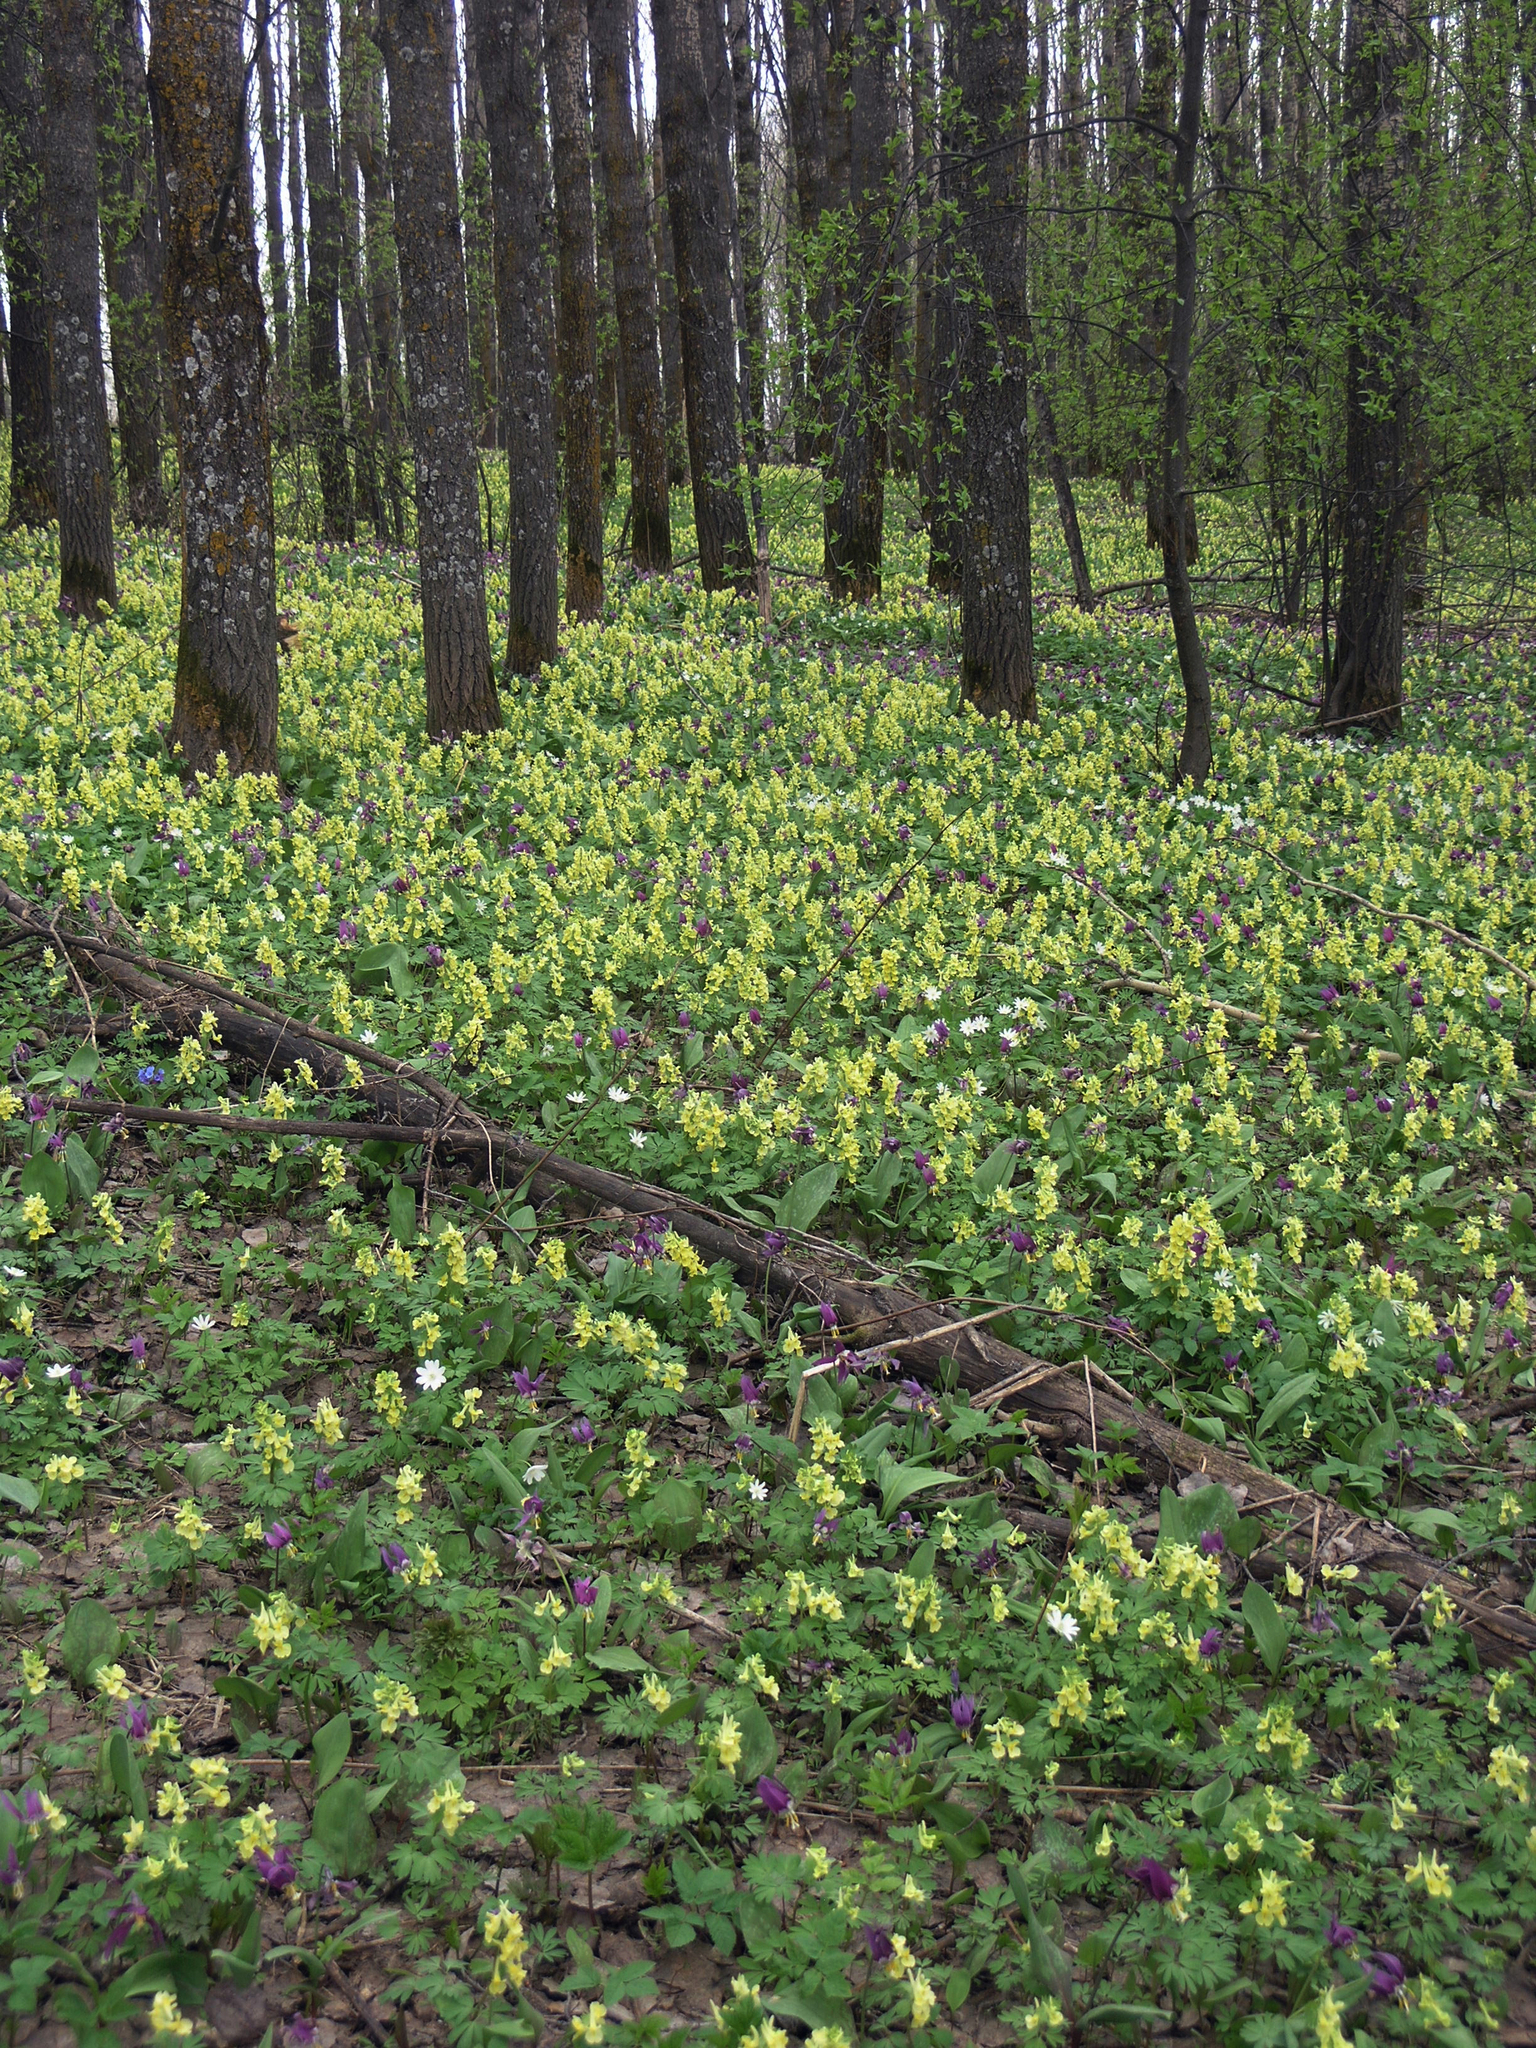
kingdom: Plantae
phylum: Tracheophyta
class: Magnoliopsida
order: Malpighiales
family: Salicaceae
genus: Populus
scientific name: Populus tremula
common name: European aspen
